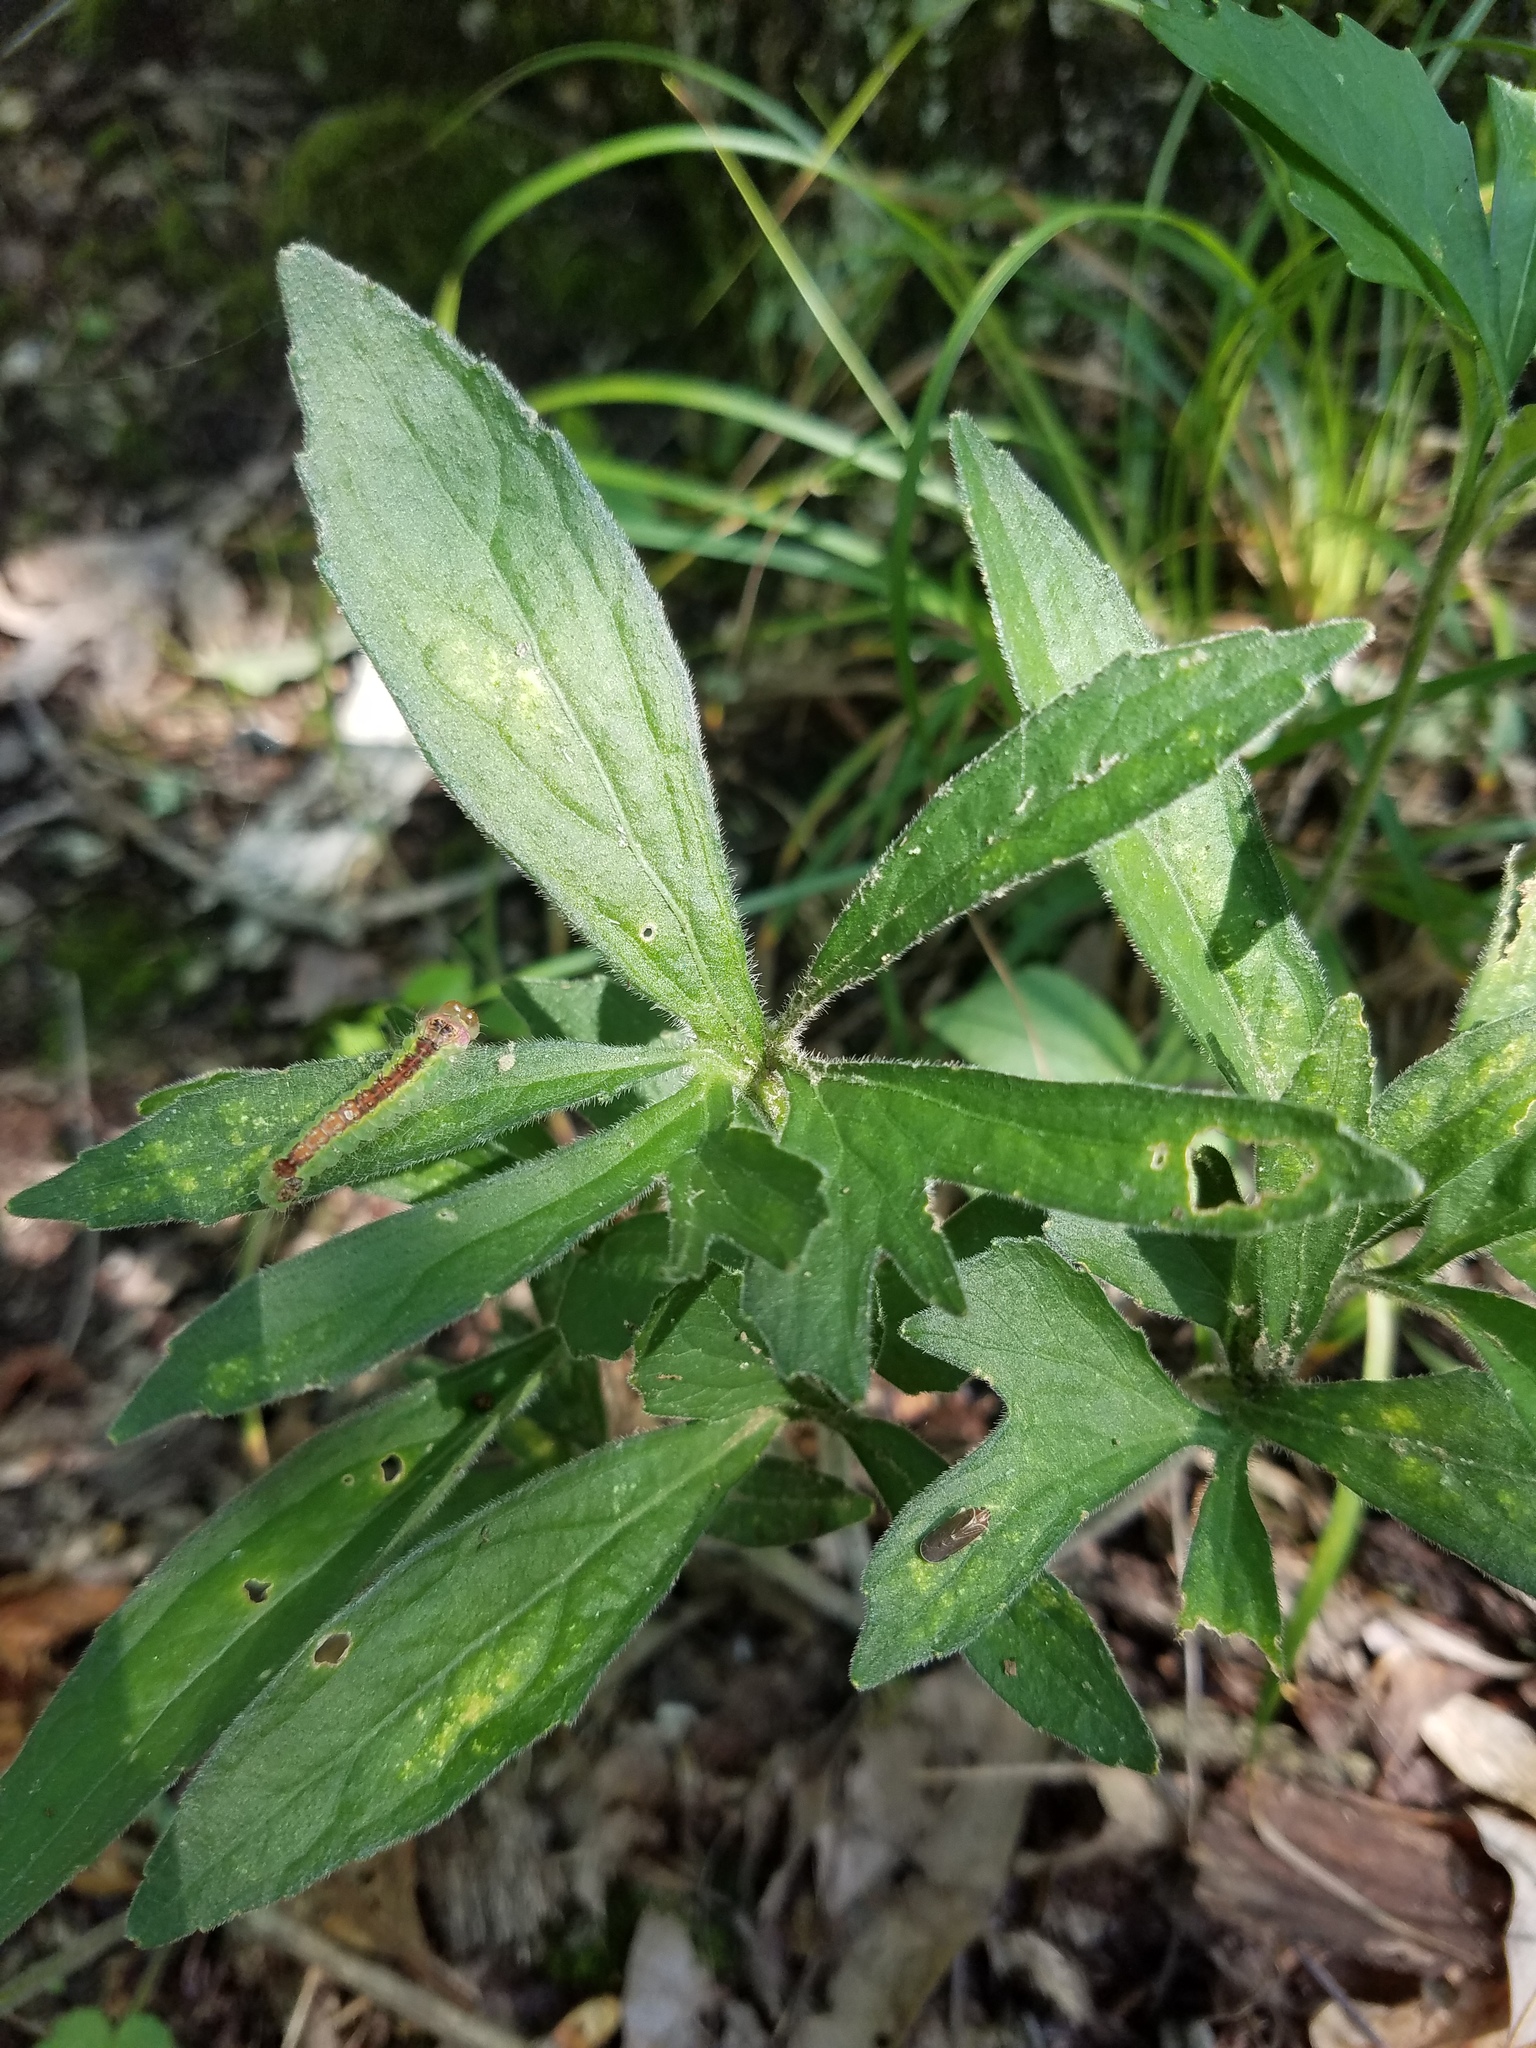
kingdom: Plantae
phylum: Tracheophyta
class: Magnoliopsida
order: Malpighiales
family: Violaceae
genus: Viola
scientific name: Viola palmata
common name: Early blue violet
